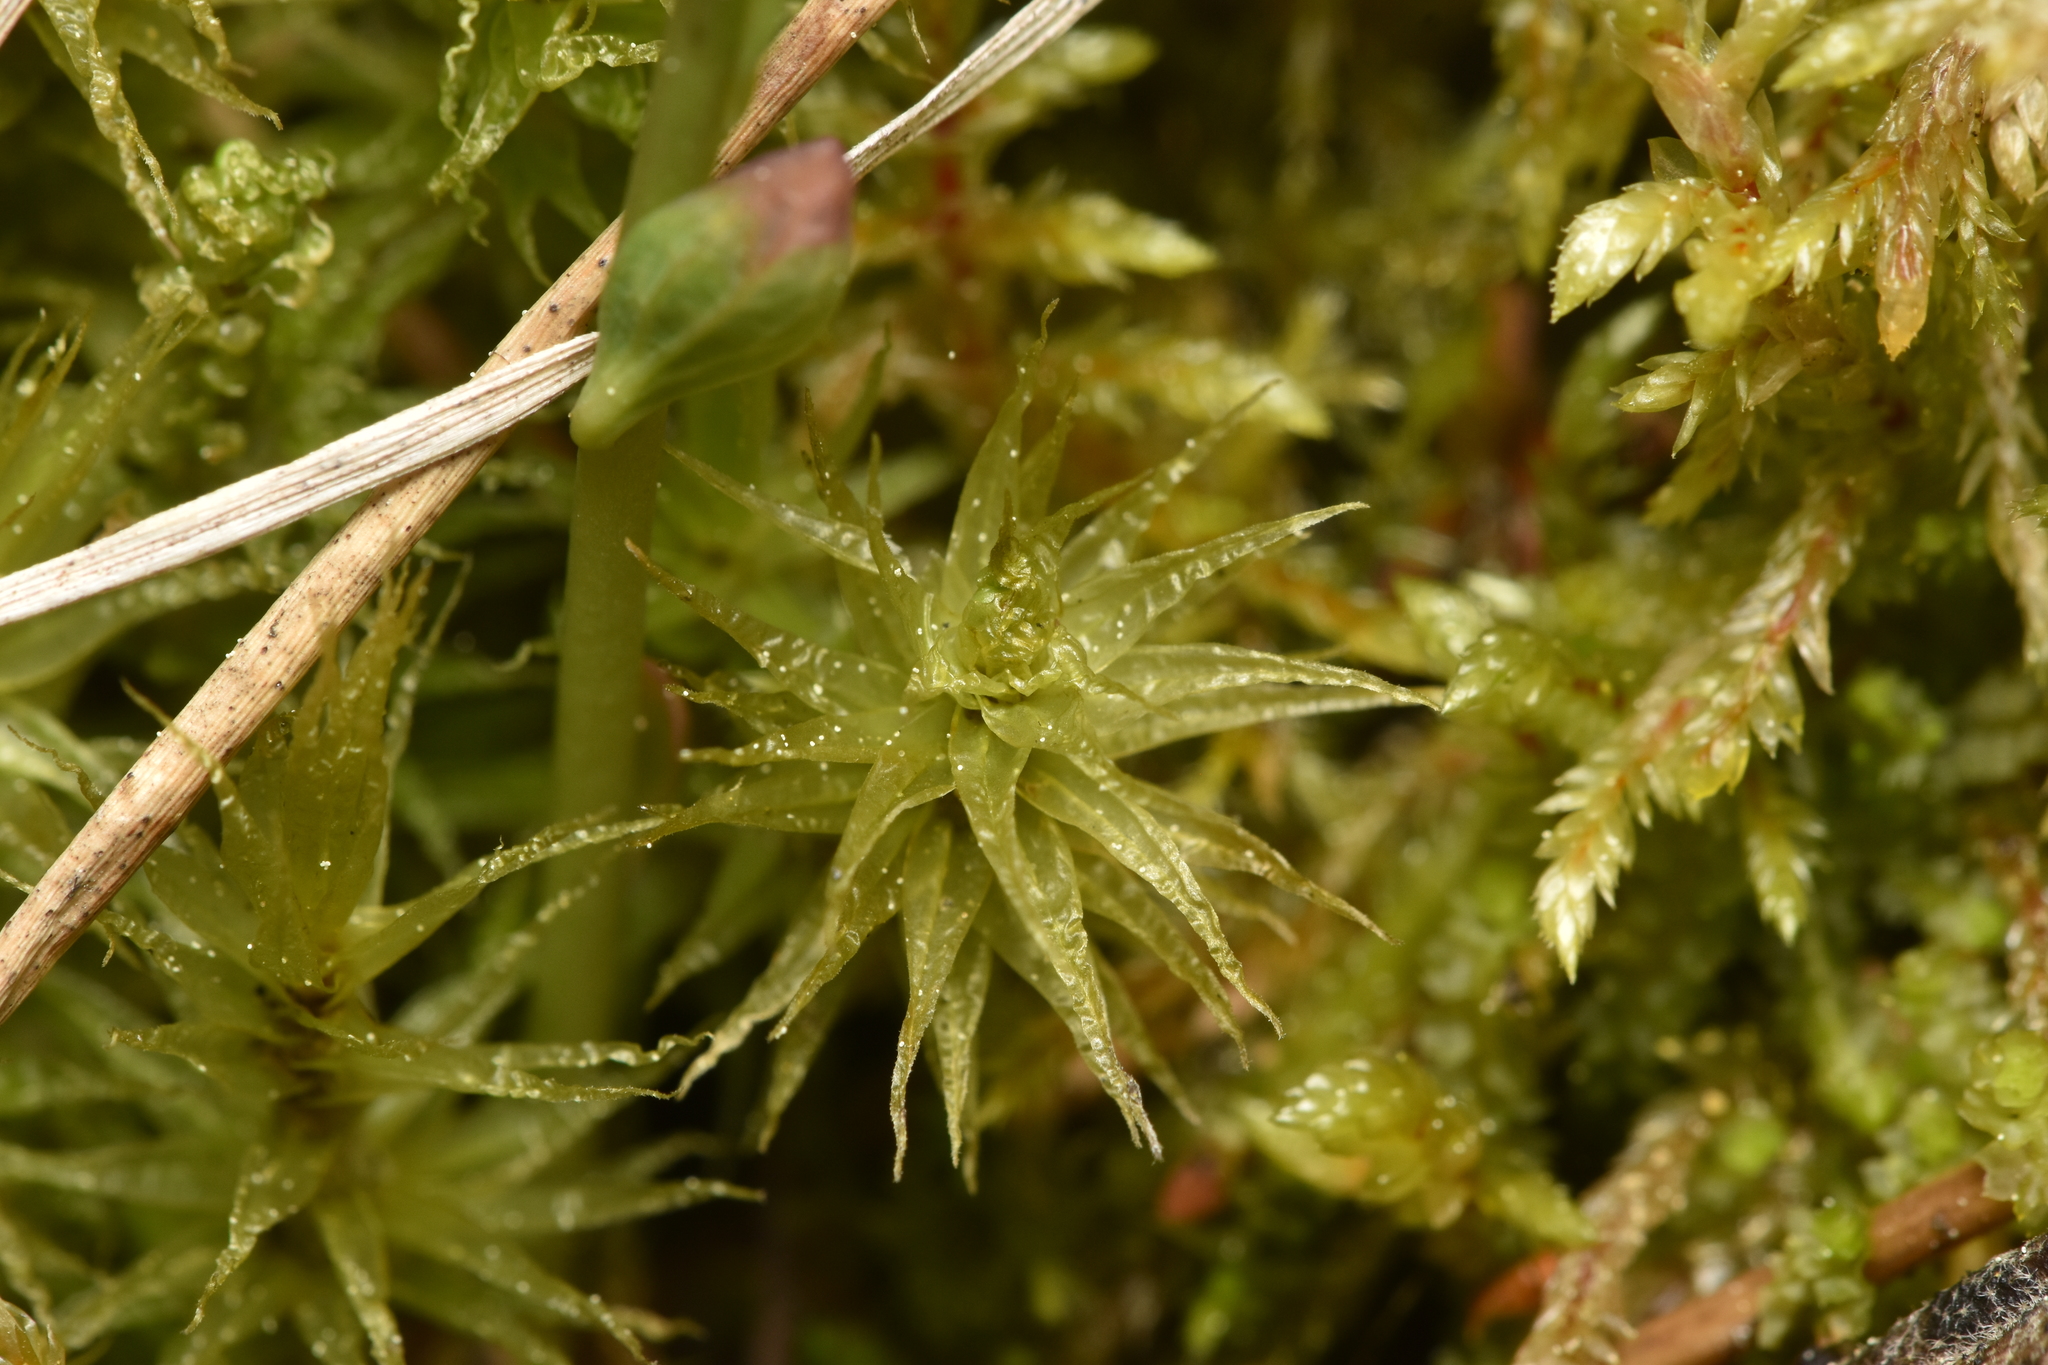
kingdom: Plantae
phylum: Bryophyta
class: Bryopsida
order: Dicranales
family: Dicranaceae
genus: Dicranum
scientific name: Dicranum polysetum
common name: Rugose fork-moss
